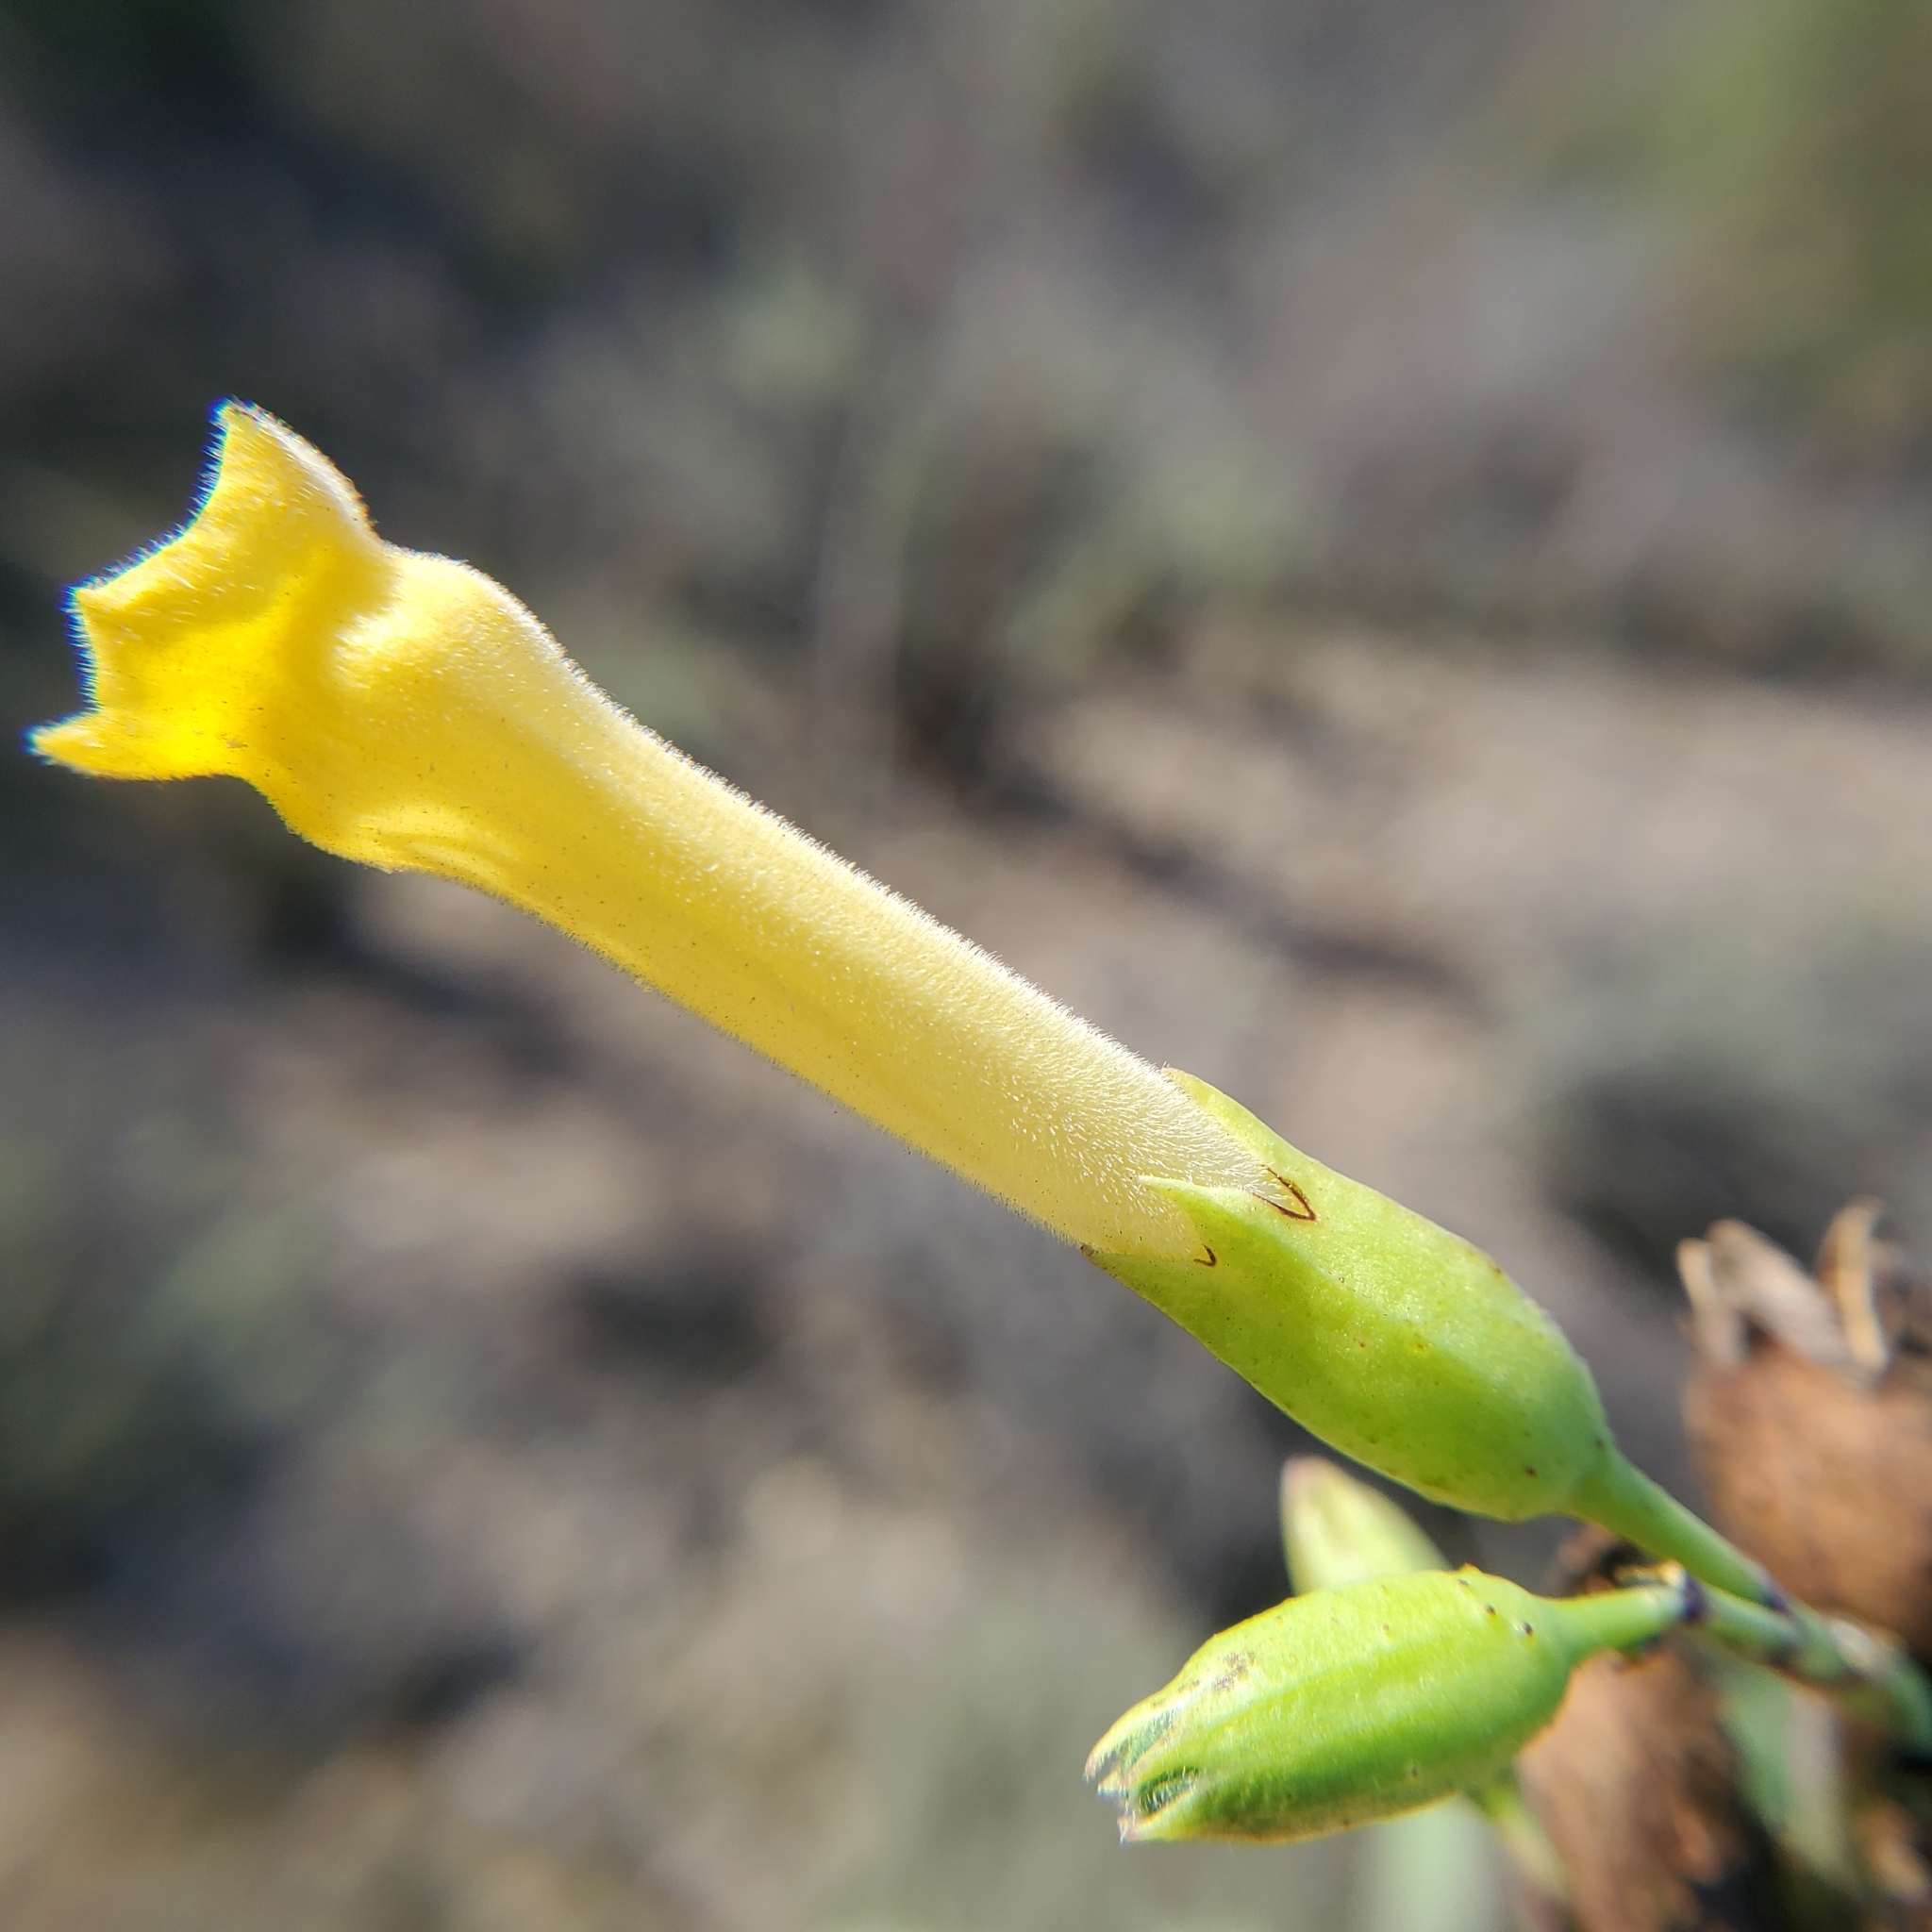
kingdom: Plantae
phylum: Tracheophyta
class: Magnoliopsida
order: Solanales
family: Solanaceae
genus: Nicotiana
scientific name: Nicotiana glauca
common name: Tree tobacco
